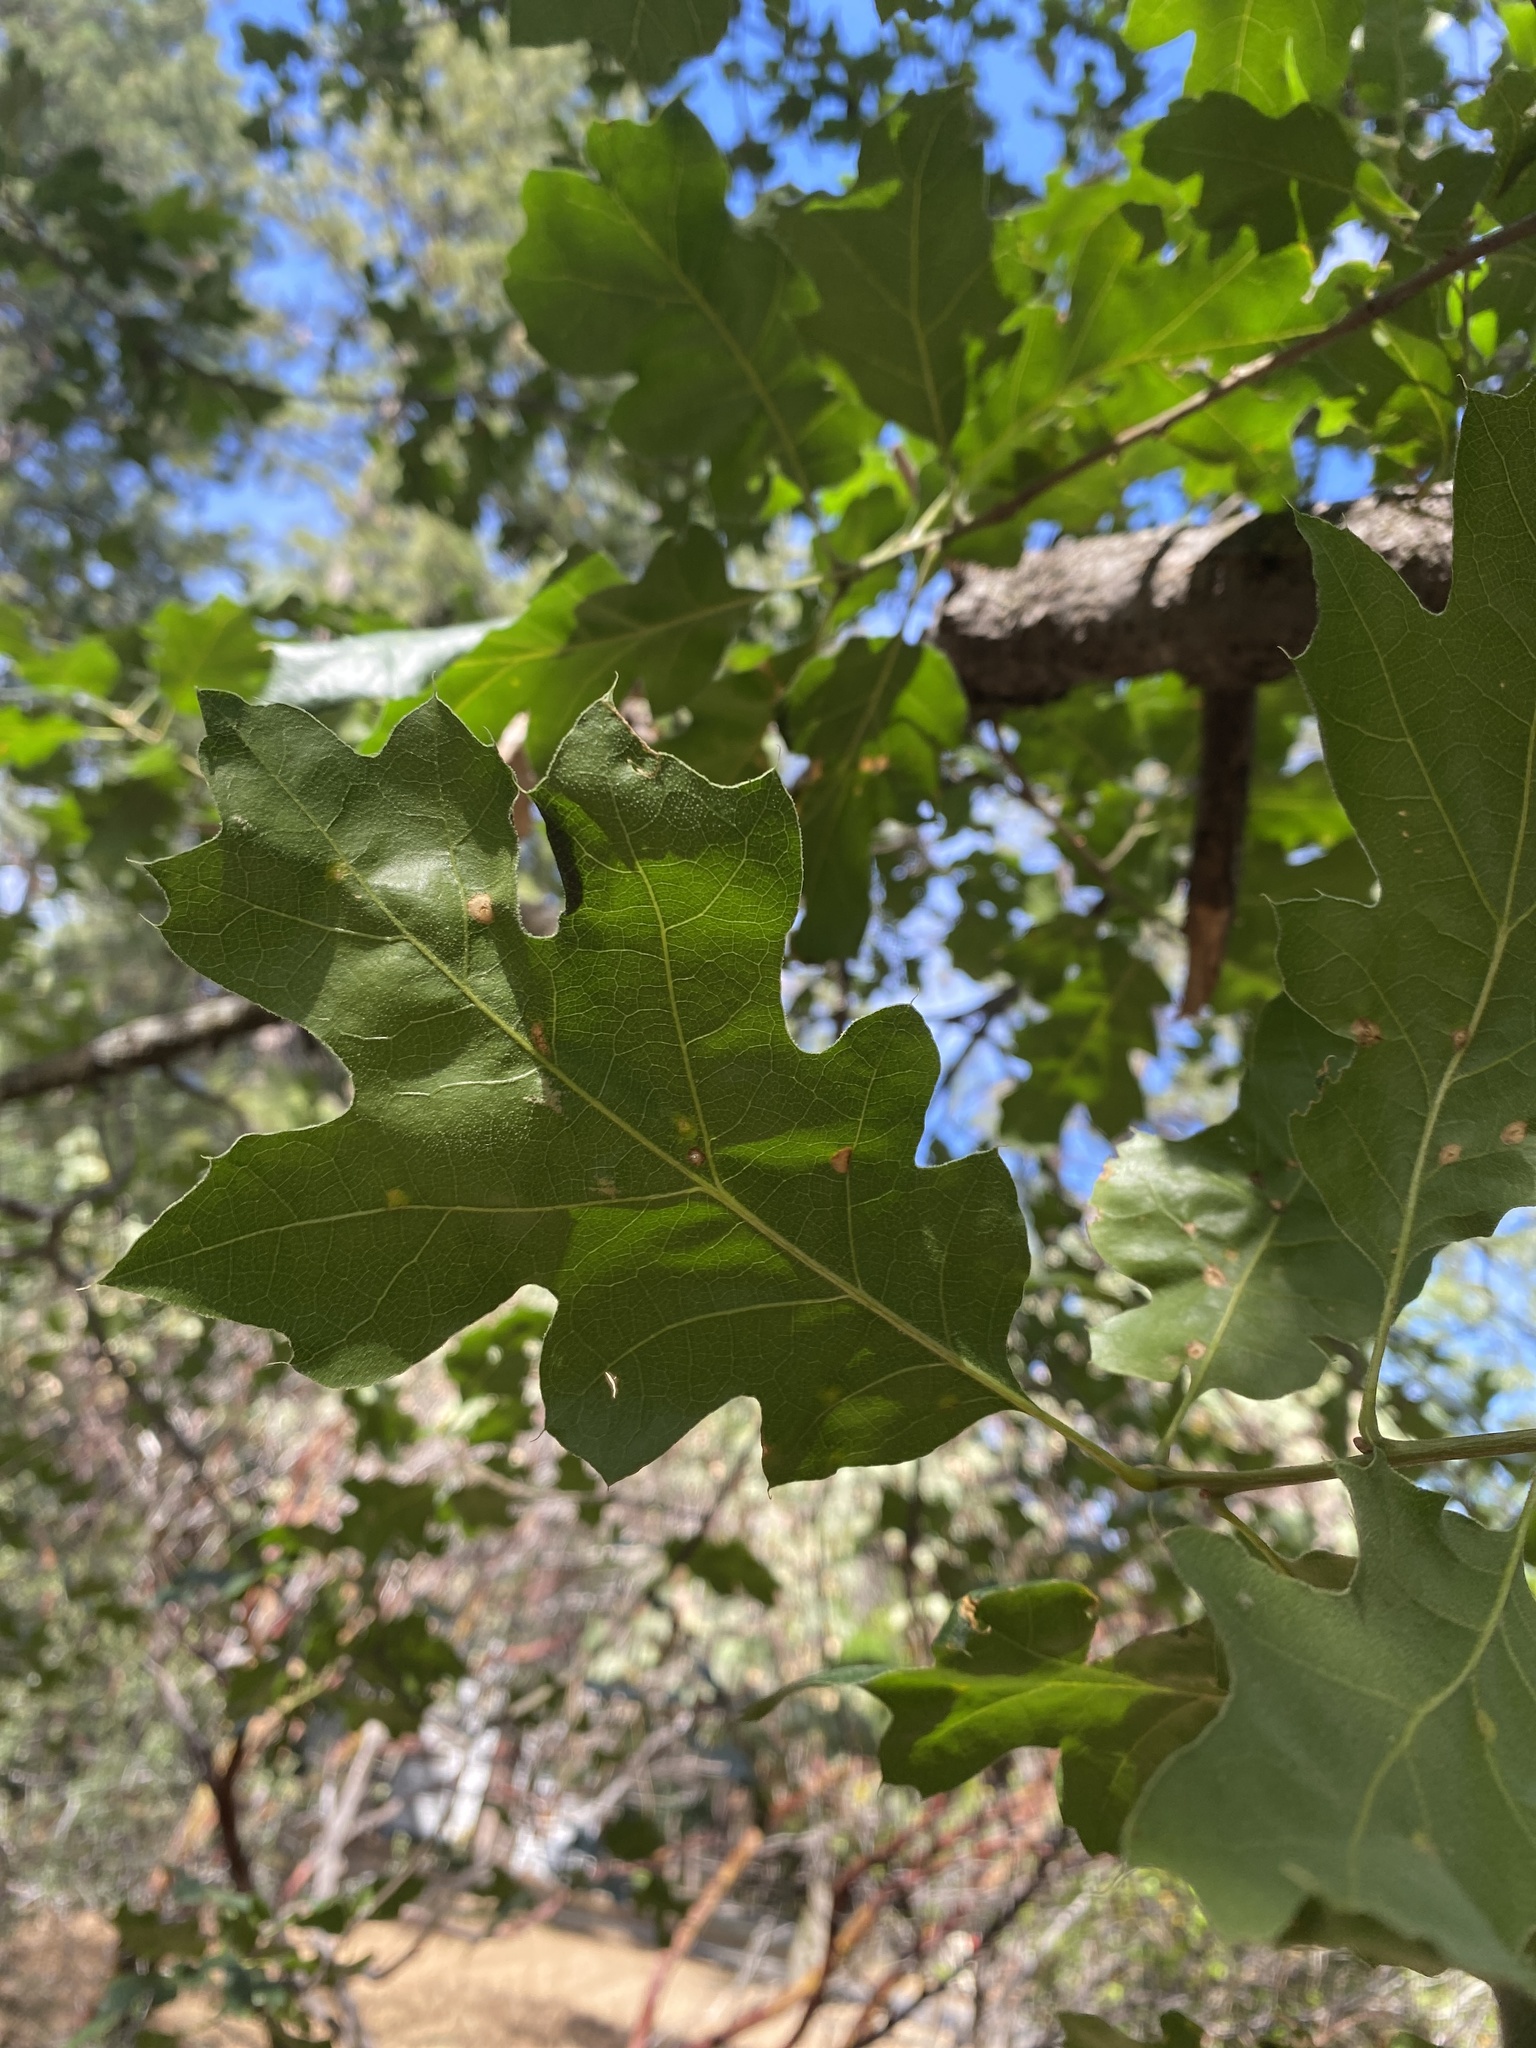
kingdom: Plantae
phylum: Tracheophyta
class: Magnoliopsida
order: Fagales
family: Fagaceae
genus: Quercus
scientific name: Quercus kelloggii
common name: California black oak
